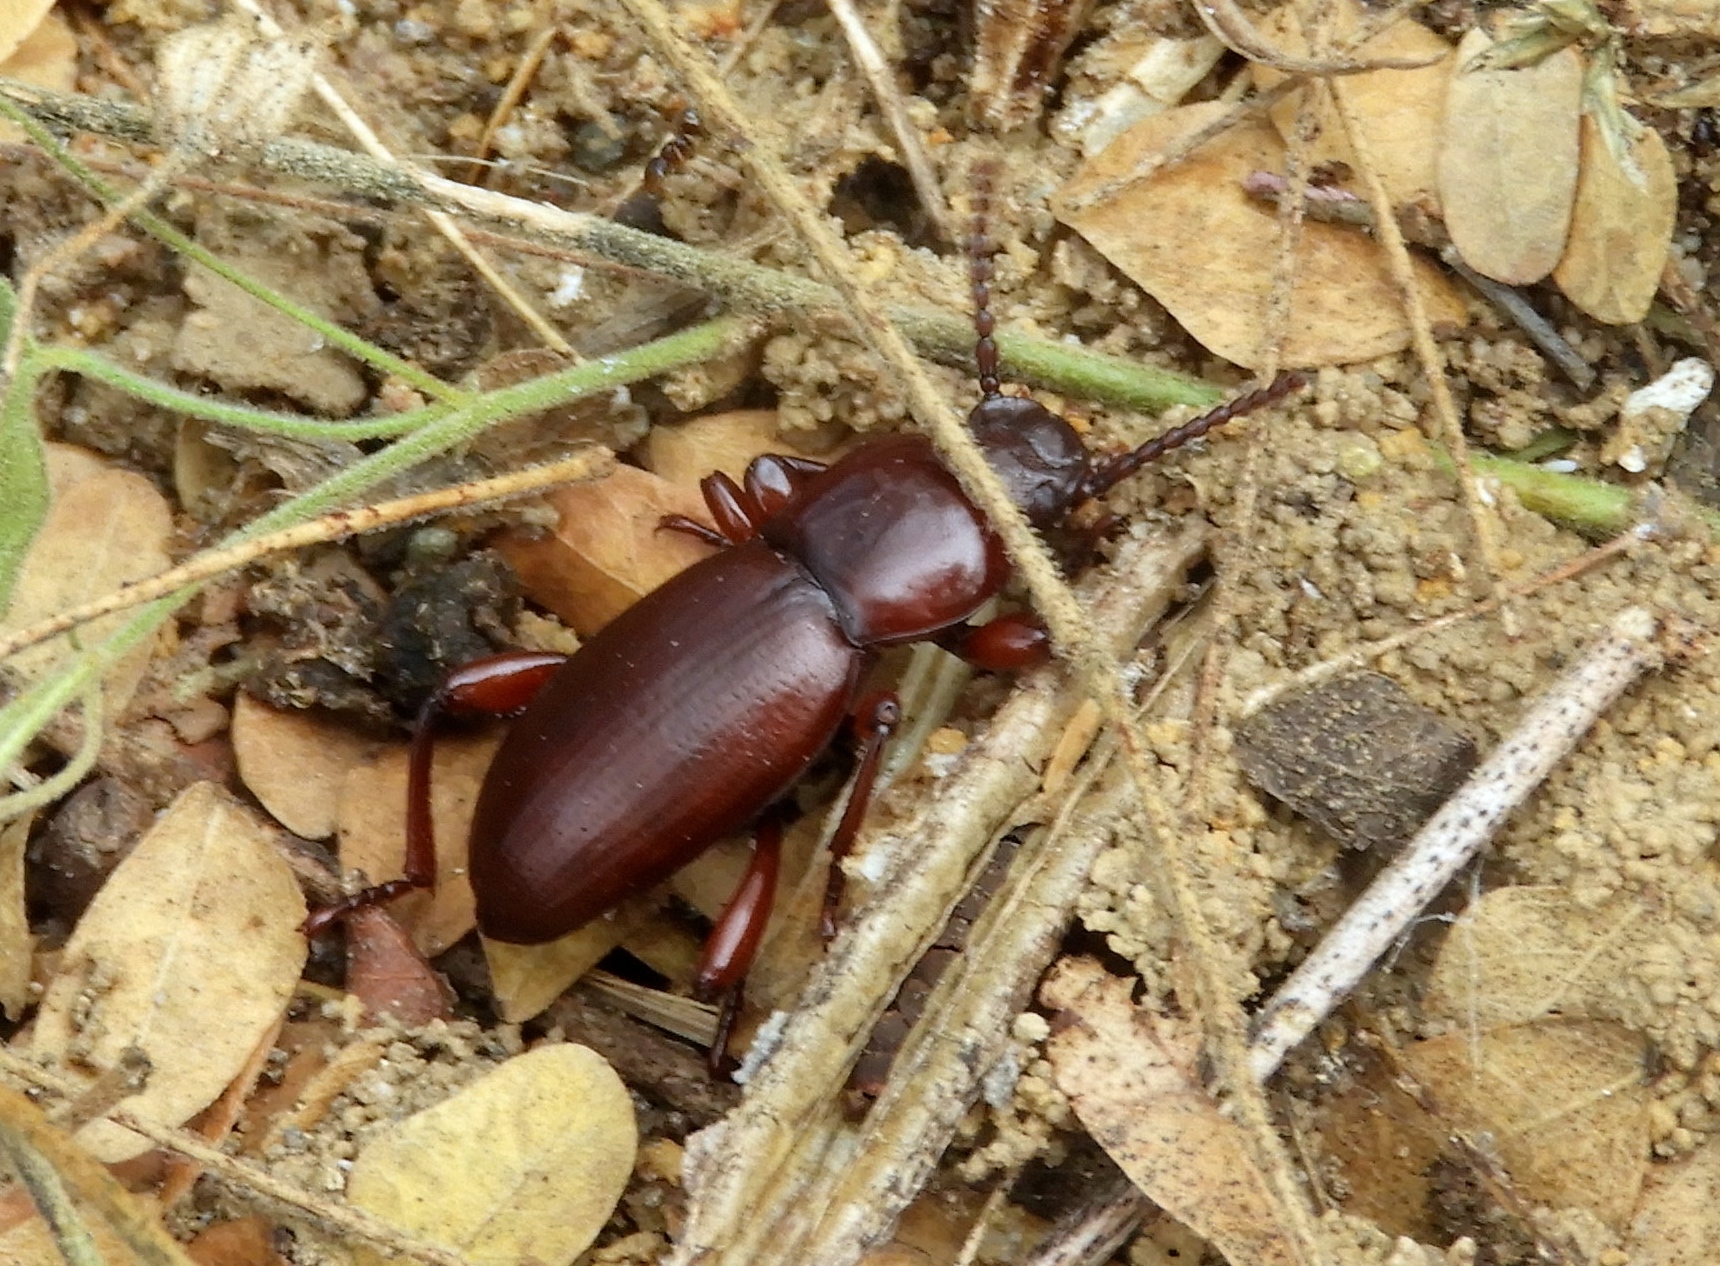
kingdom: Animalia
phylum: Arthropoda
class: Insecta
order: Coleoptera
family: Tenebrionidae
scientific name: Tenebrionidae
